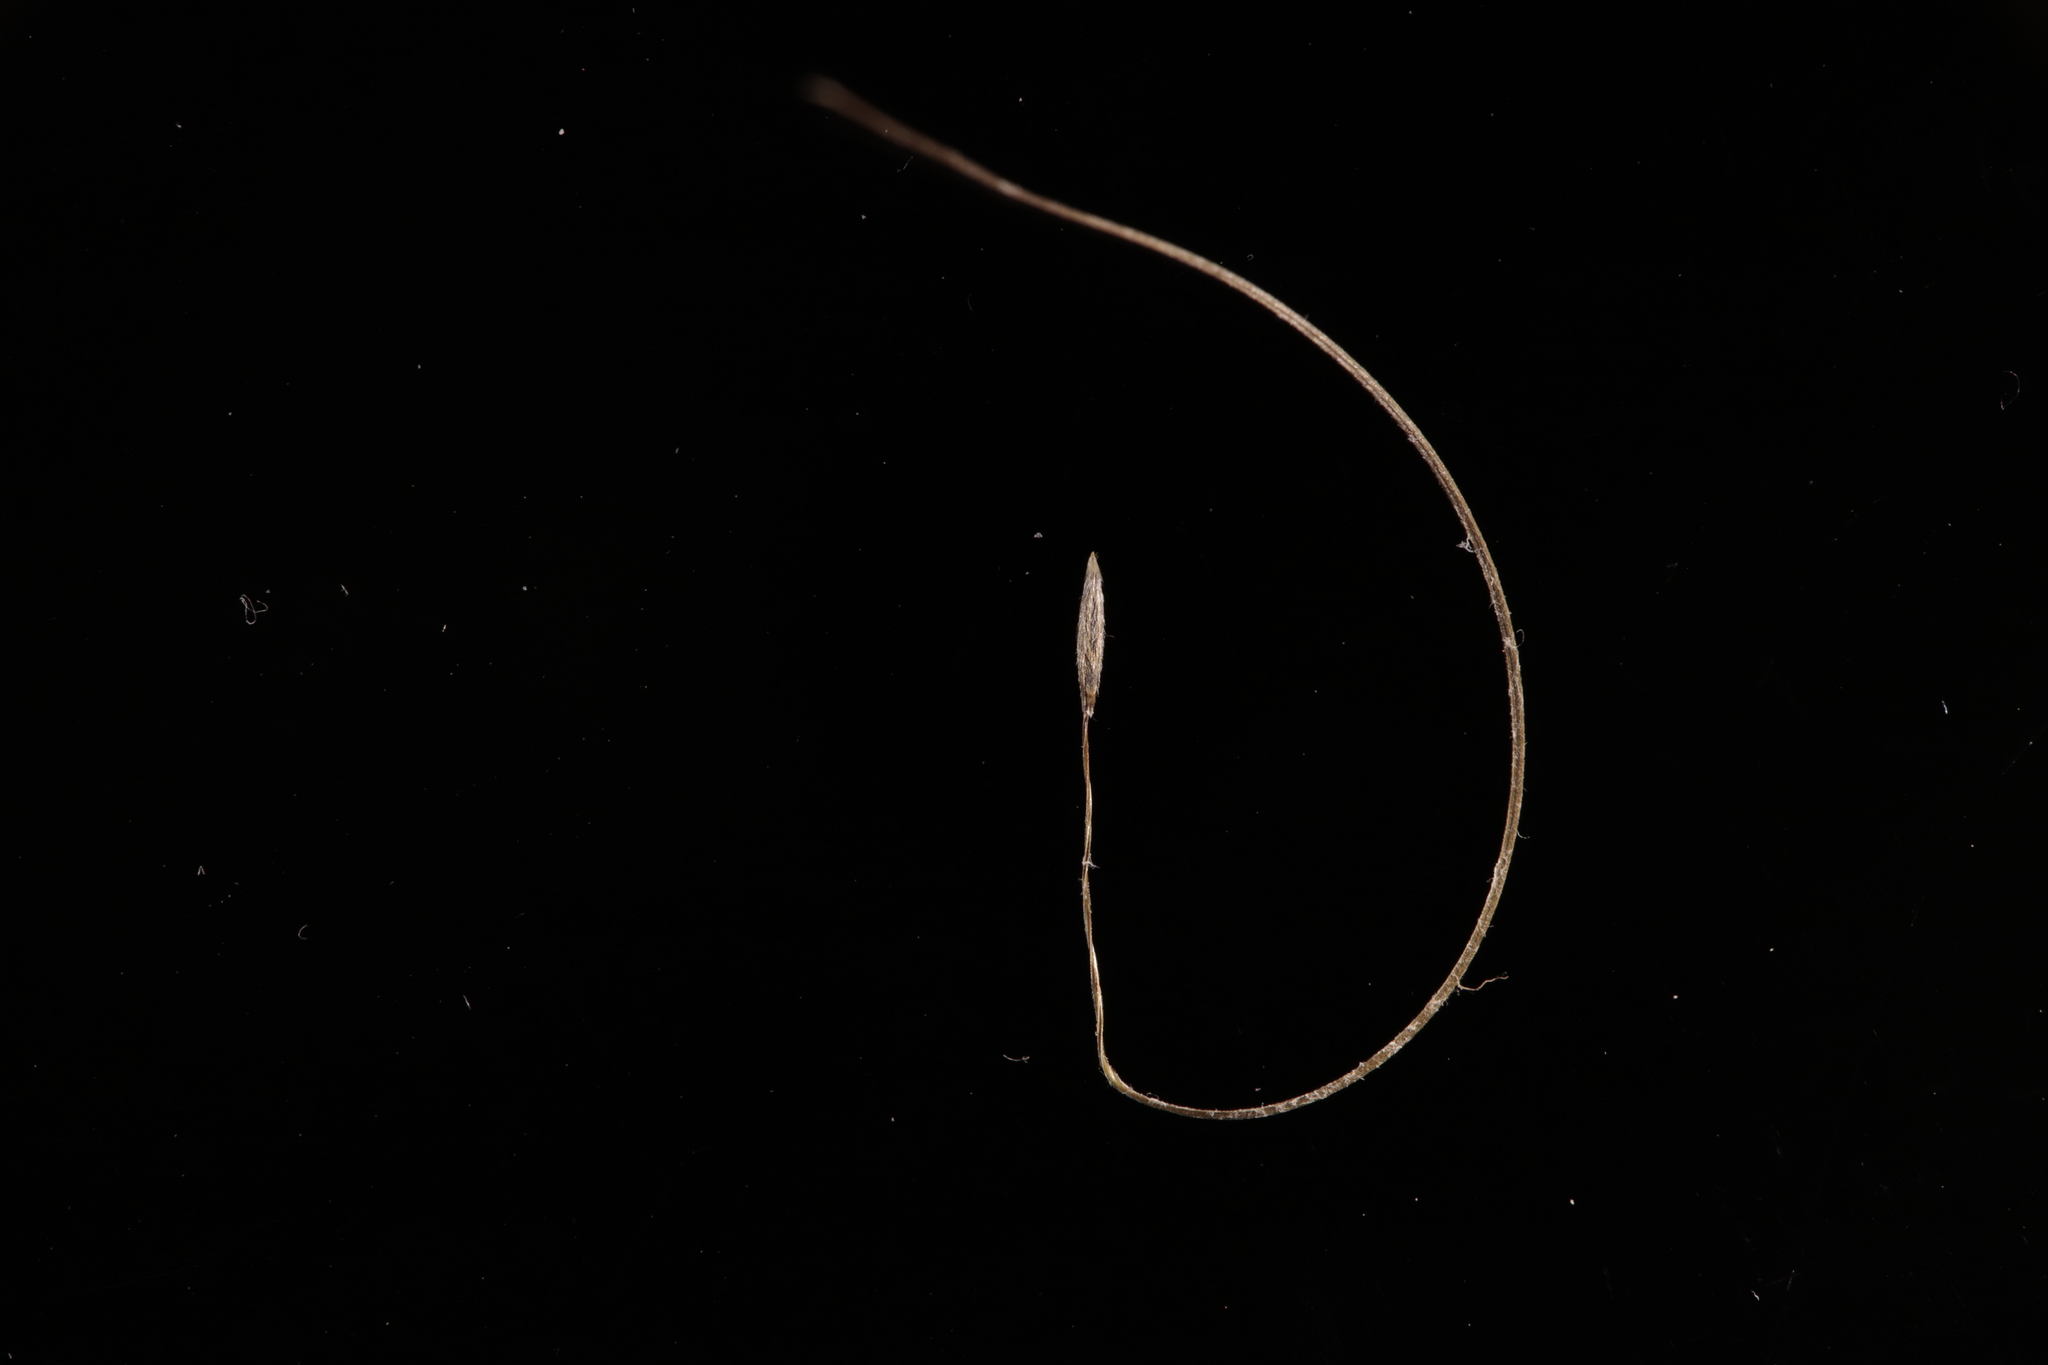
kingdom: Plantae
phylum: Tracheophyta
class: Liliopsida
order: Poales
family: Poaceae
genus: Austrostipa
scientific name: Austrostipa platychaeta
